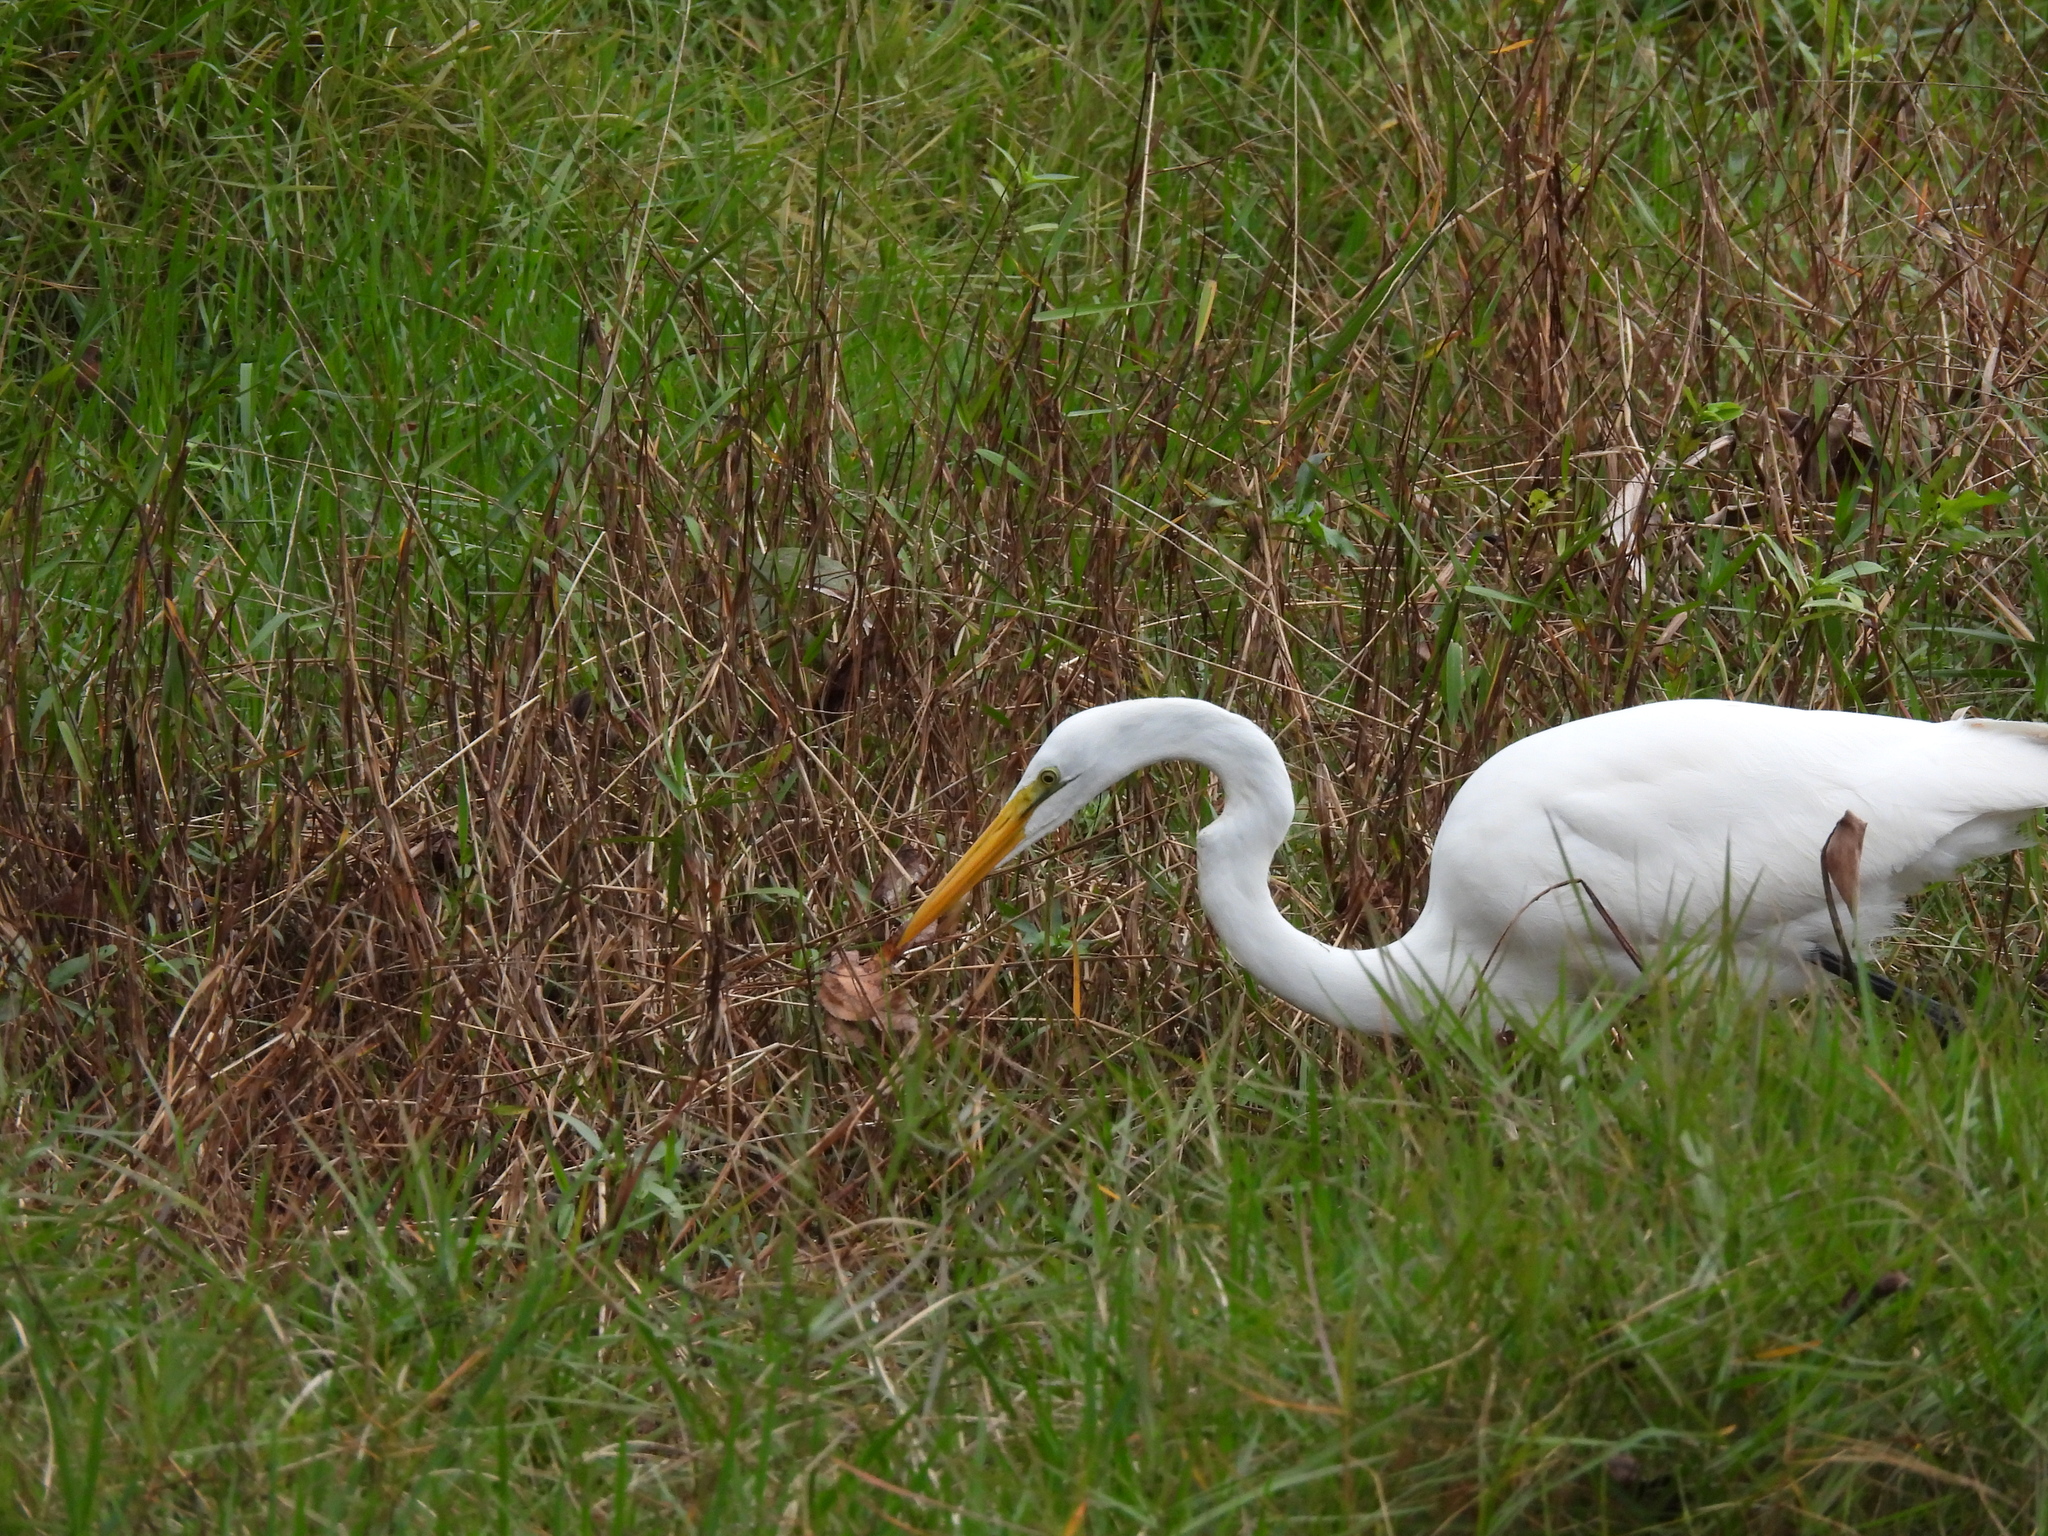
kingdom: Animalia
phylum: Chordata
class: Aves
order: Pelecaniformes
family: Ardeidae
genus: Ardea
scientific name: Ardea alba
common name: Great egret
